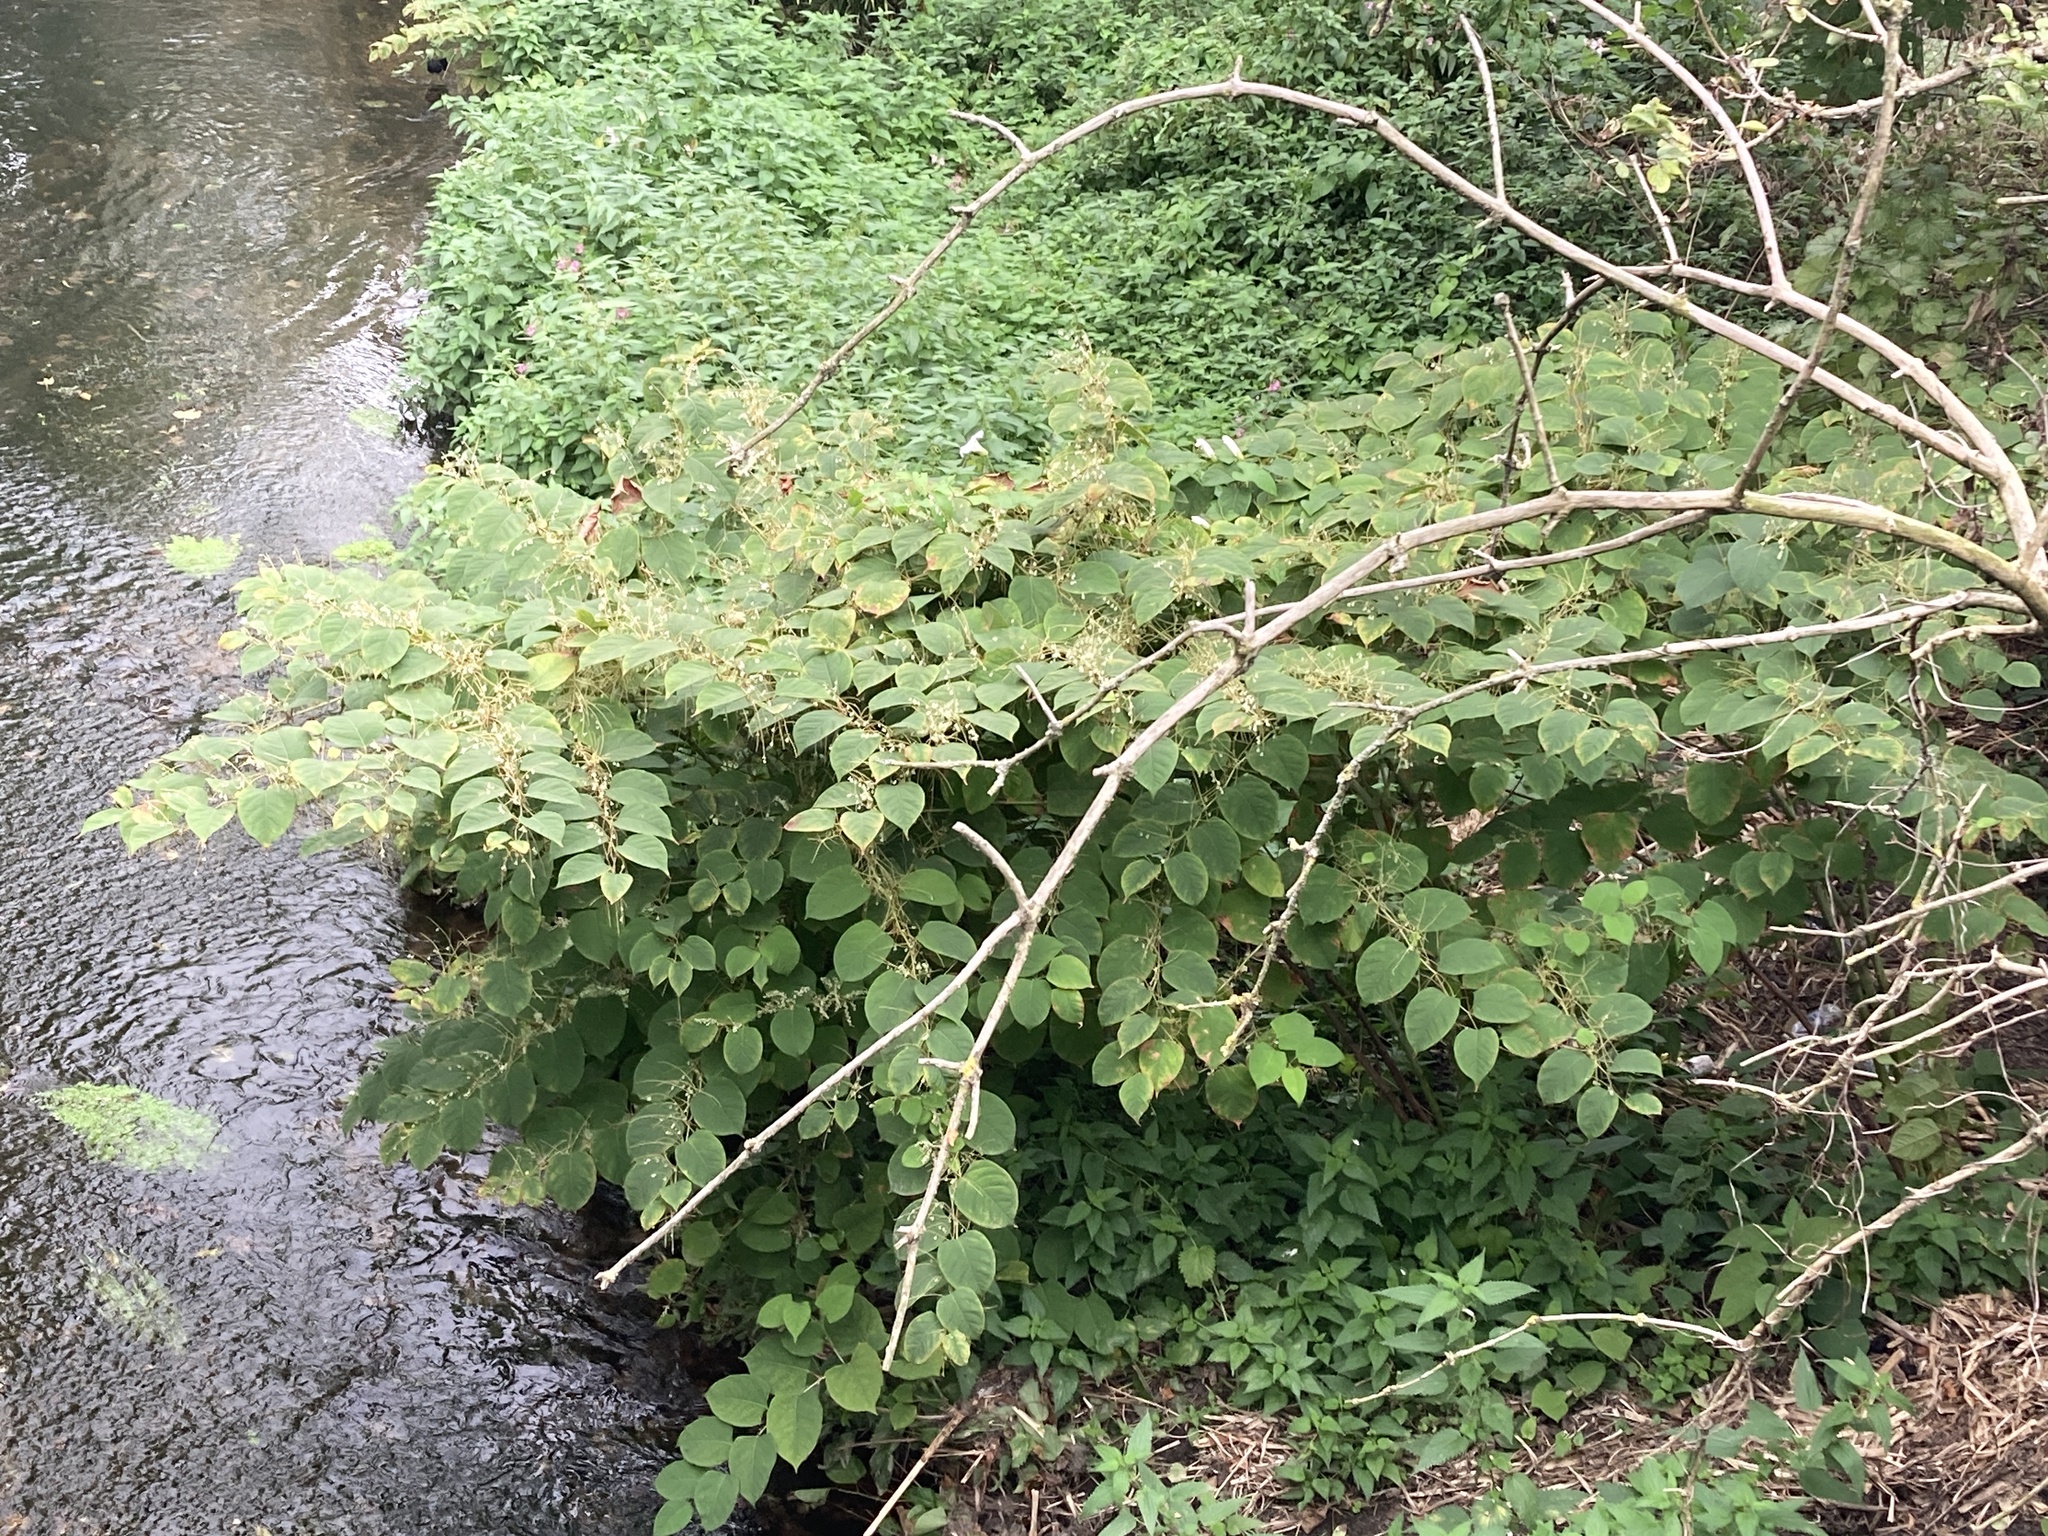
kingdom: Plantae
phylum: Tracheophyta
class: Magnoliopsida
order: Caryophyllales
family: Polygonaceae
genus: Reynoutria
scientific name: Reynoutria japonica
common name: Japanese knotweed
